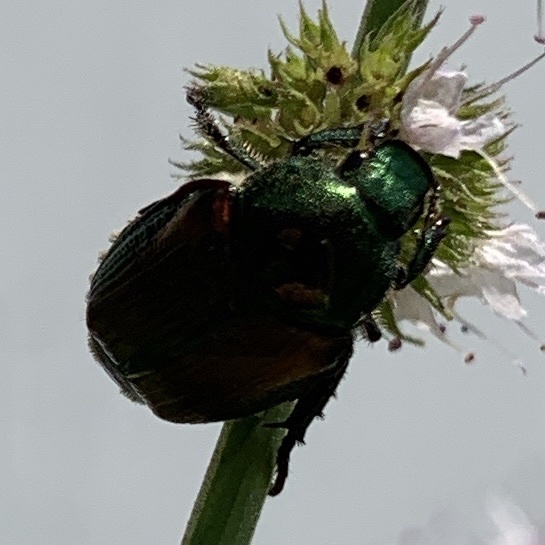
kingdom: Animalia
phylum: Arthropoda
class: Insecta
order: Coleoptera
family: Scarabaeidae
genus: Popillia
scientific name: Popillia japonica
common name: Japanese beetle
